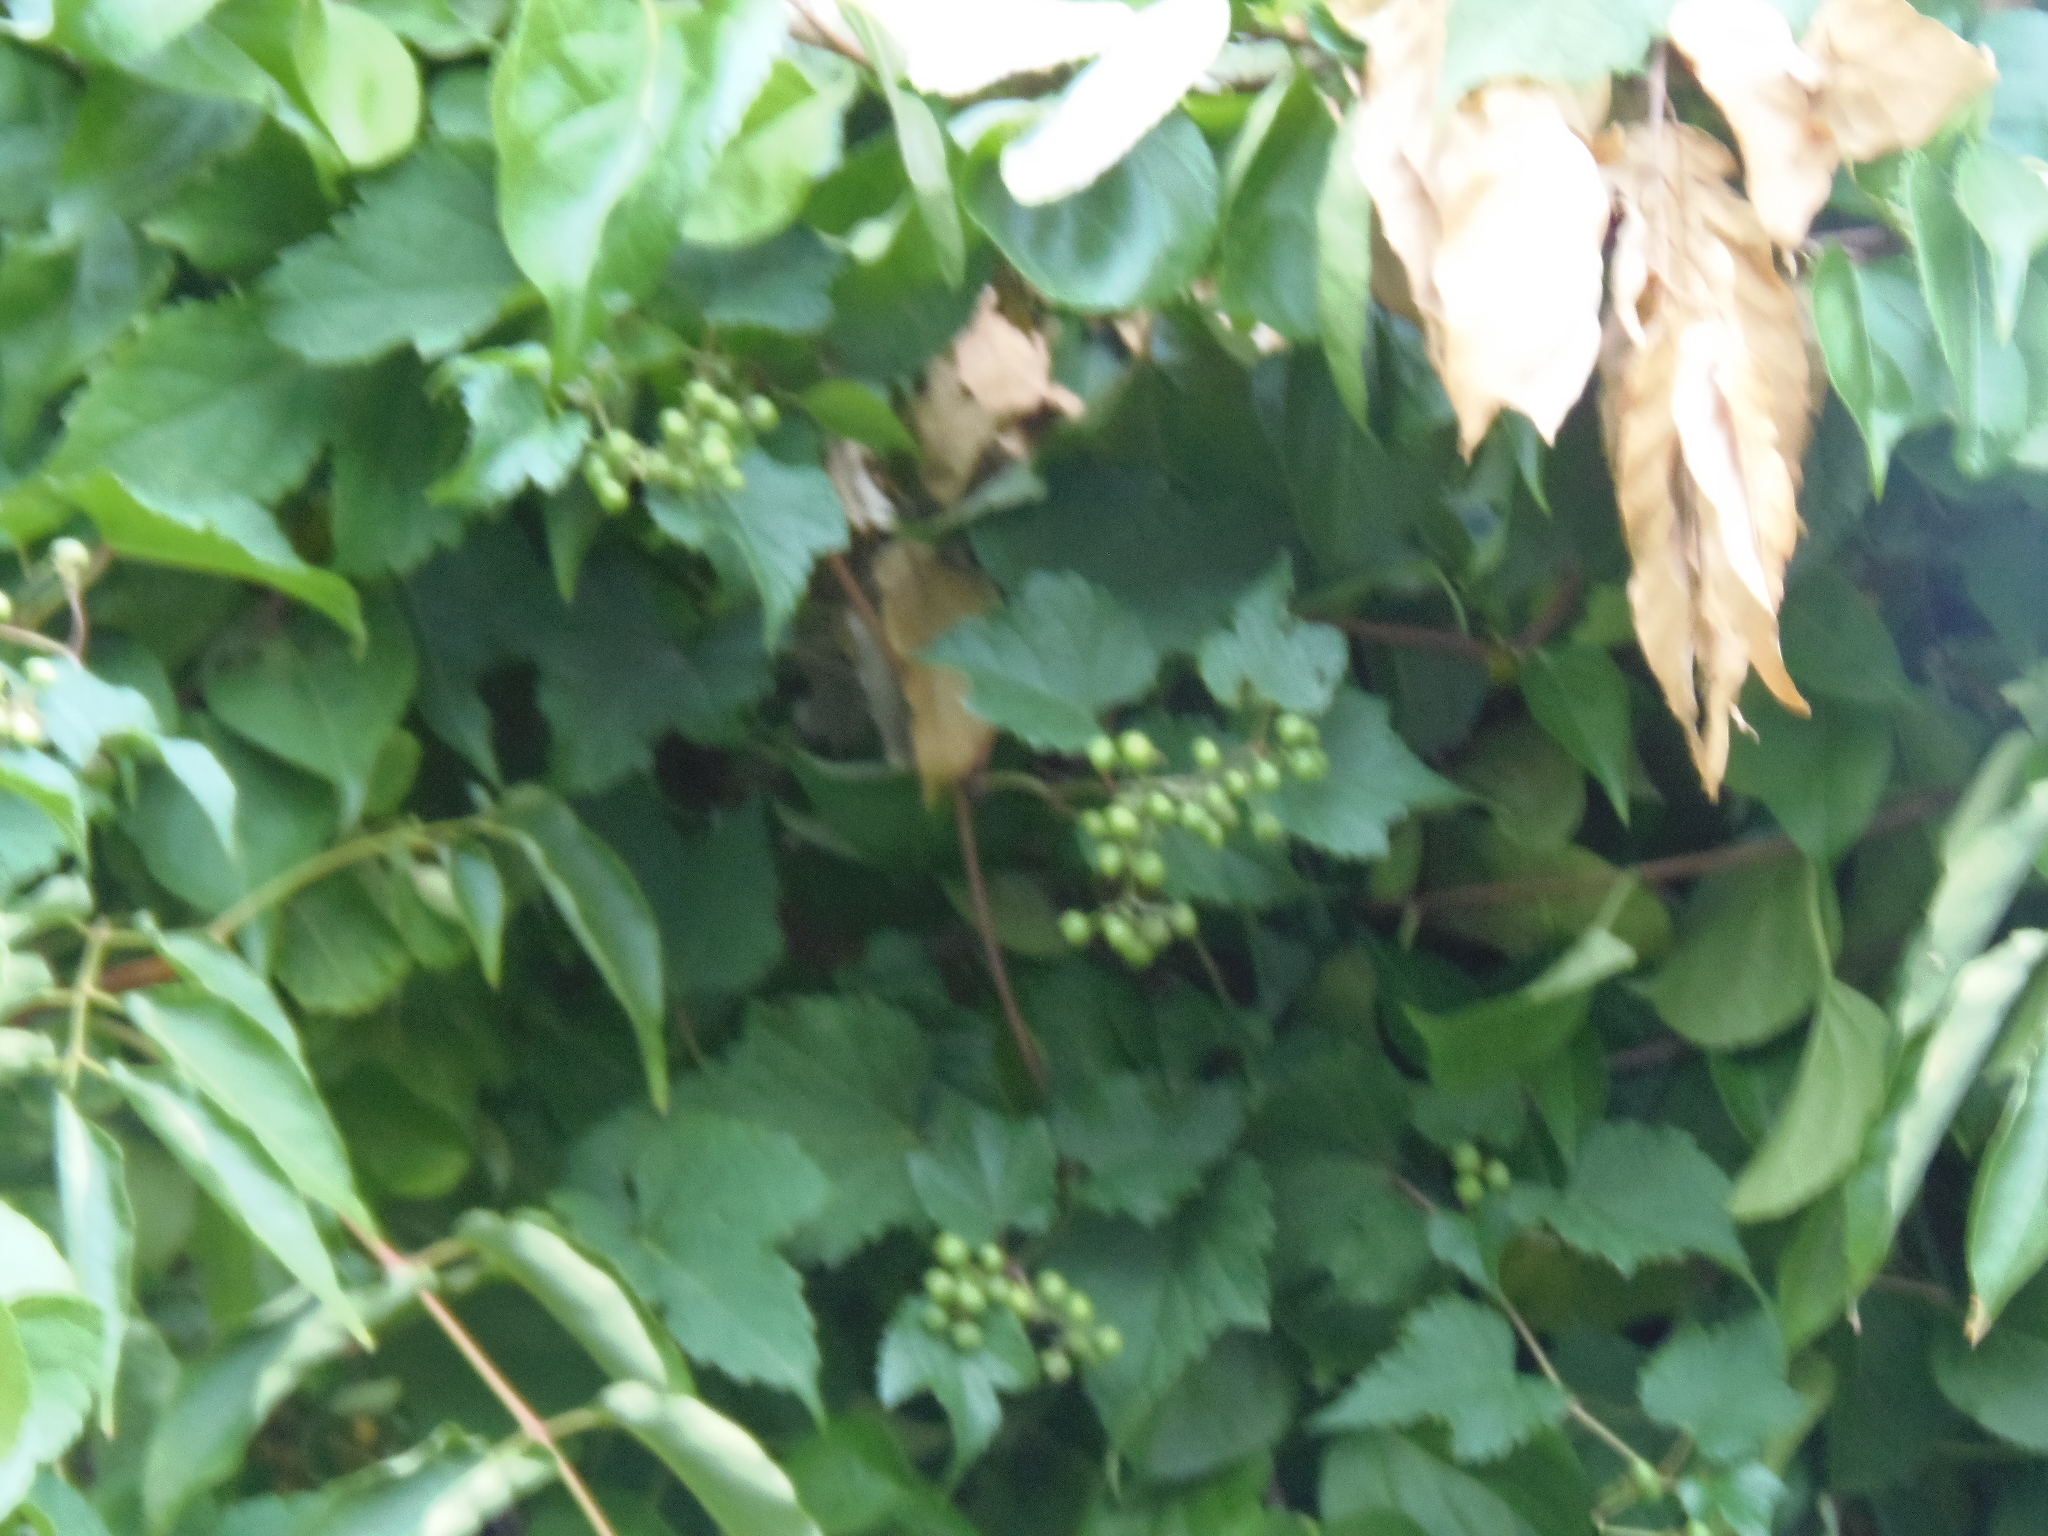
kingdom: Plantae
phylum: Tracheophyta
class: Magnoliopsida
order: Vitales
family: Vitaceae
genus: Ampelopsis
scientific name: Ampelopsis glandulosa
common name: Amur peppervine
